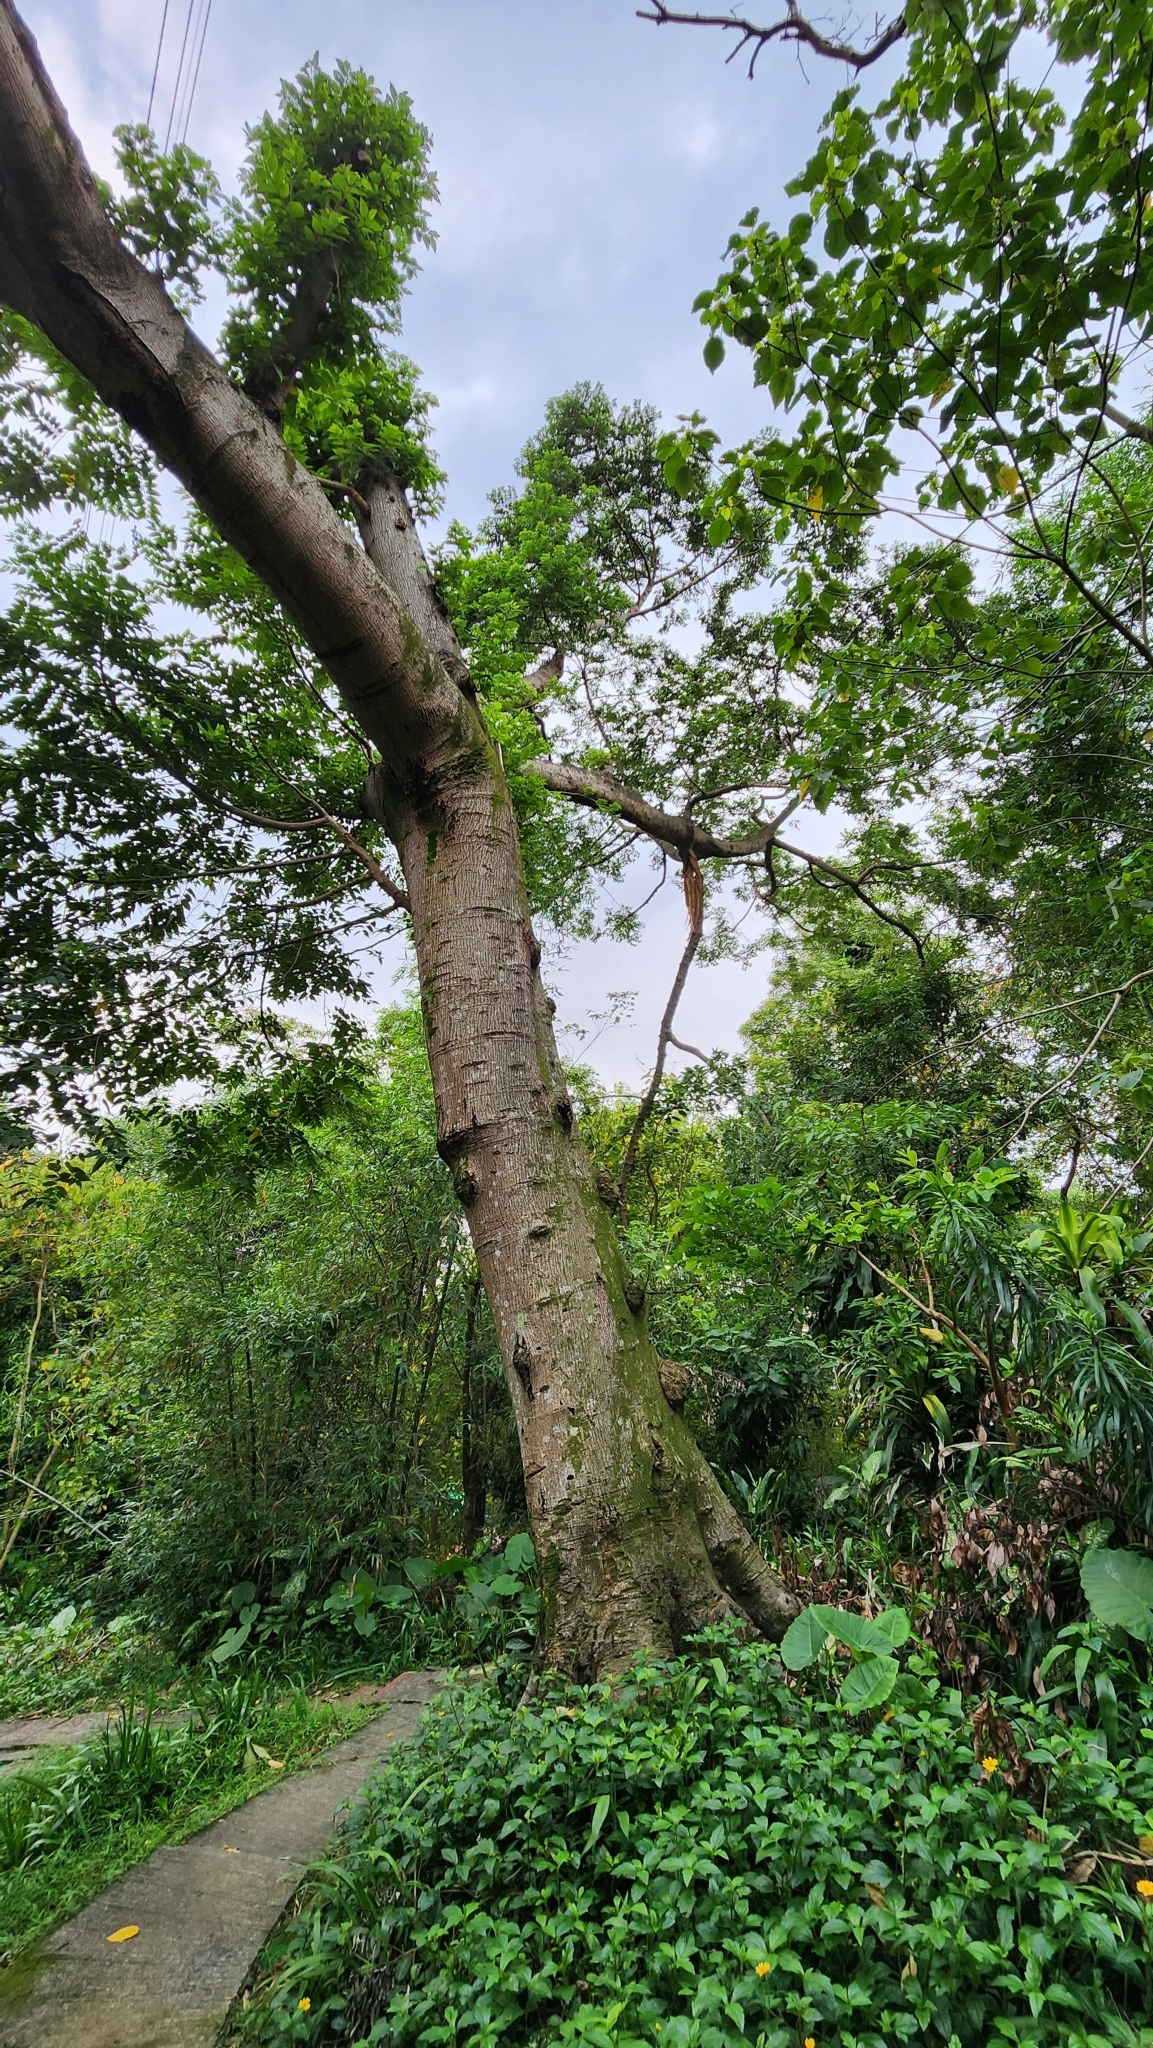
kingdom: Plantae
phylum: Tracheophyta
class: Magnoliopsida
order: Rosales
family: Cannabaceae
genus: Celtis
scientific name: Celtis sinensis
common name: Chinese hackberry
